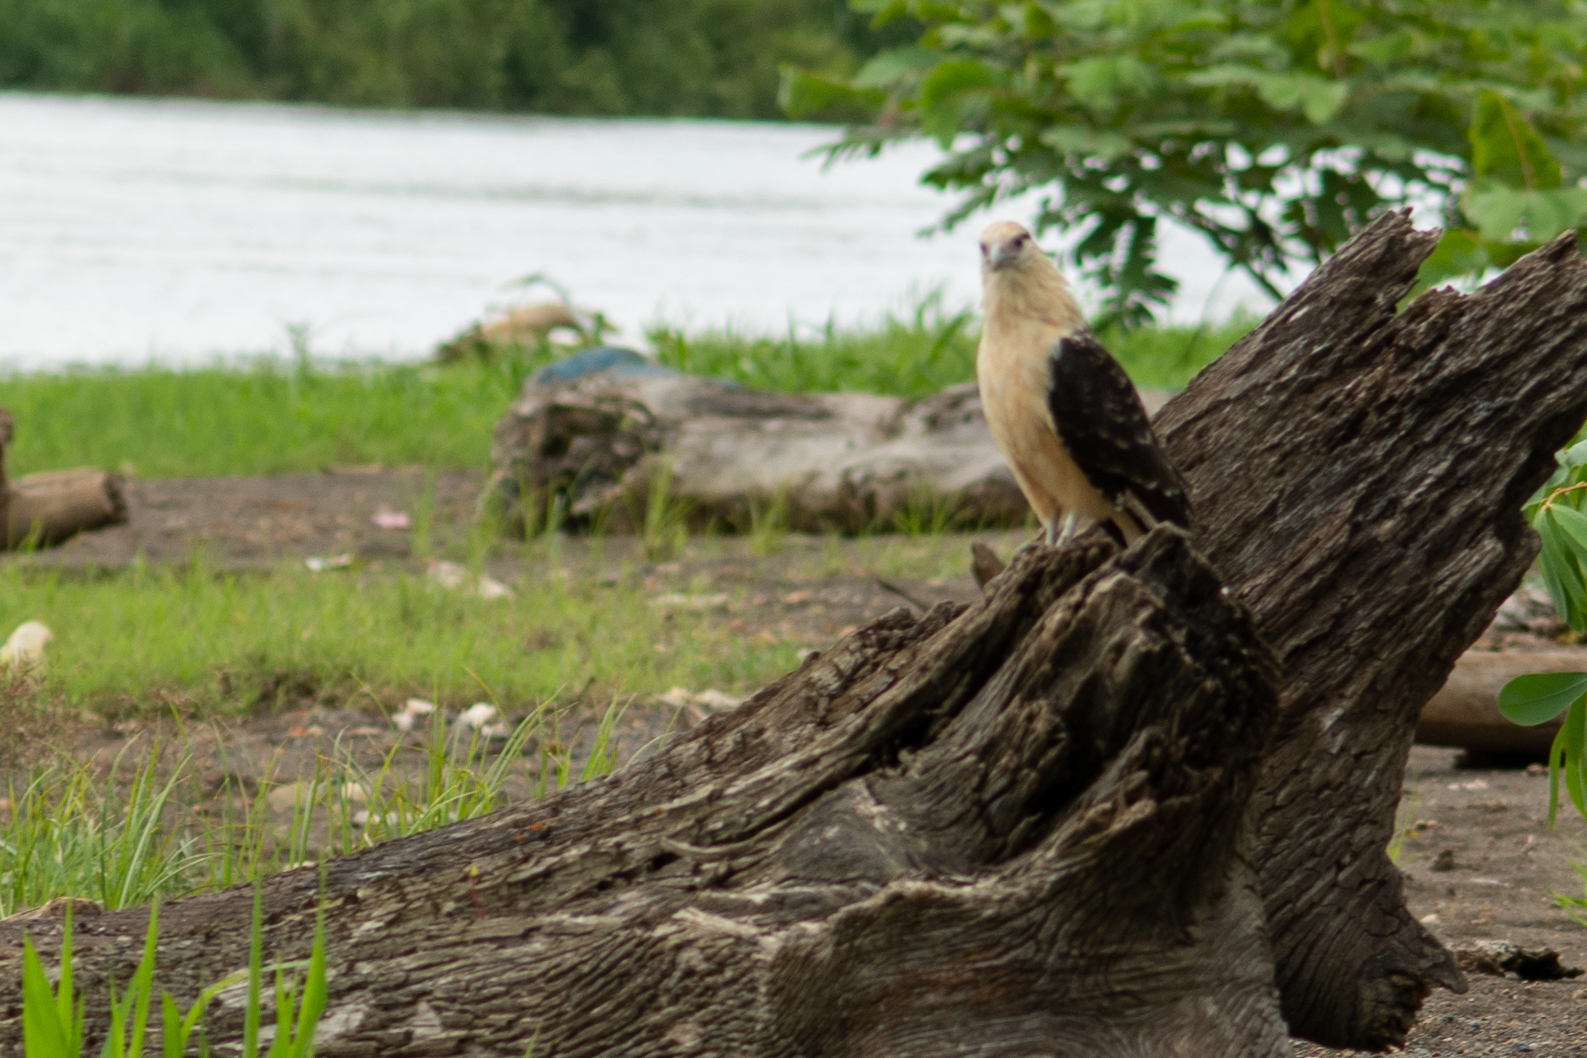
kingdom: Animalia
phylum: Chordata
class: Aves
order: Falconiformes
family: Falconidae
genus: Daptrius
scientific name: Daptrius
